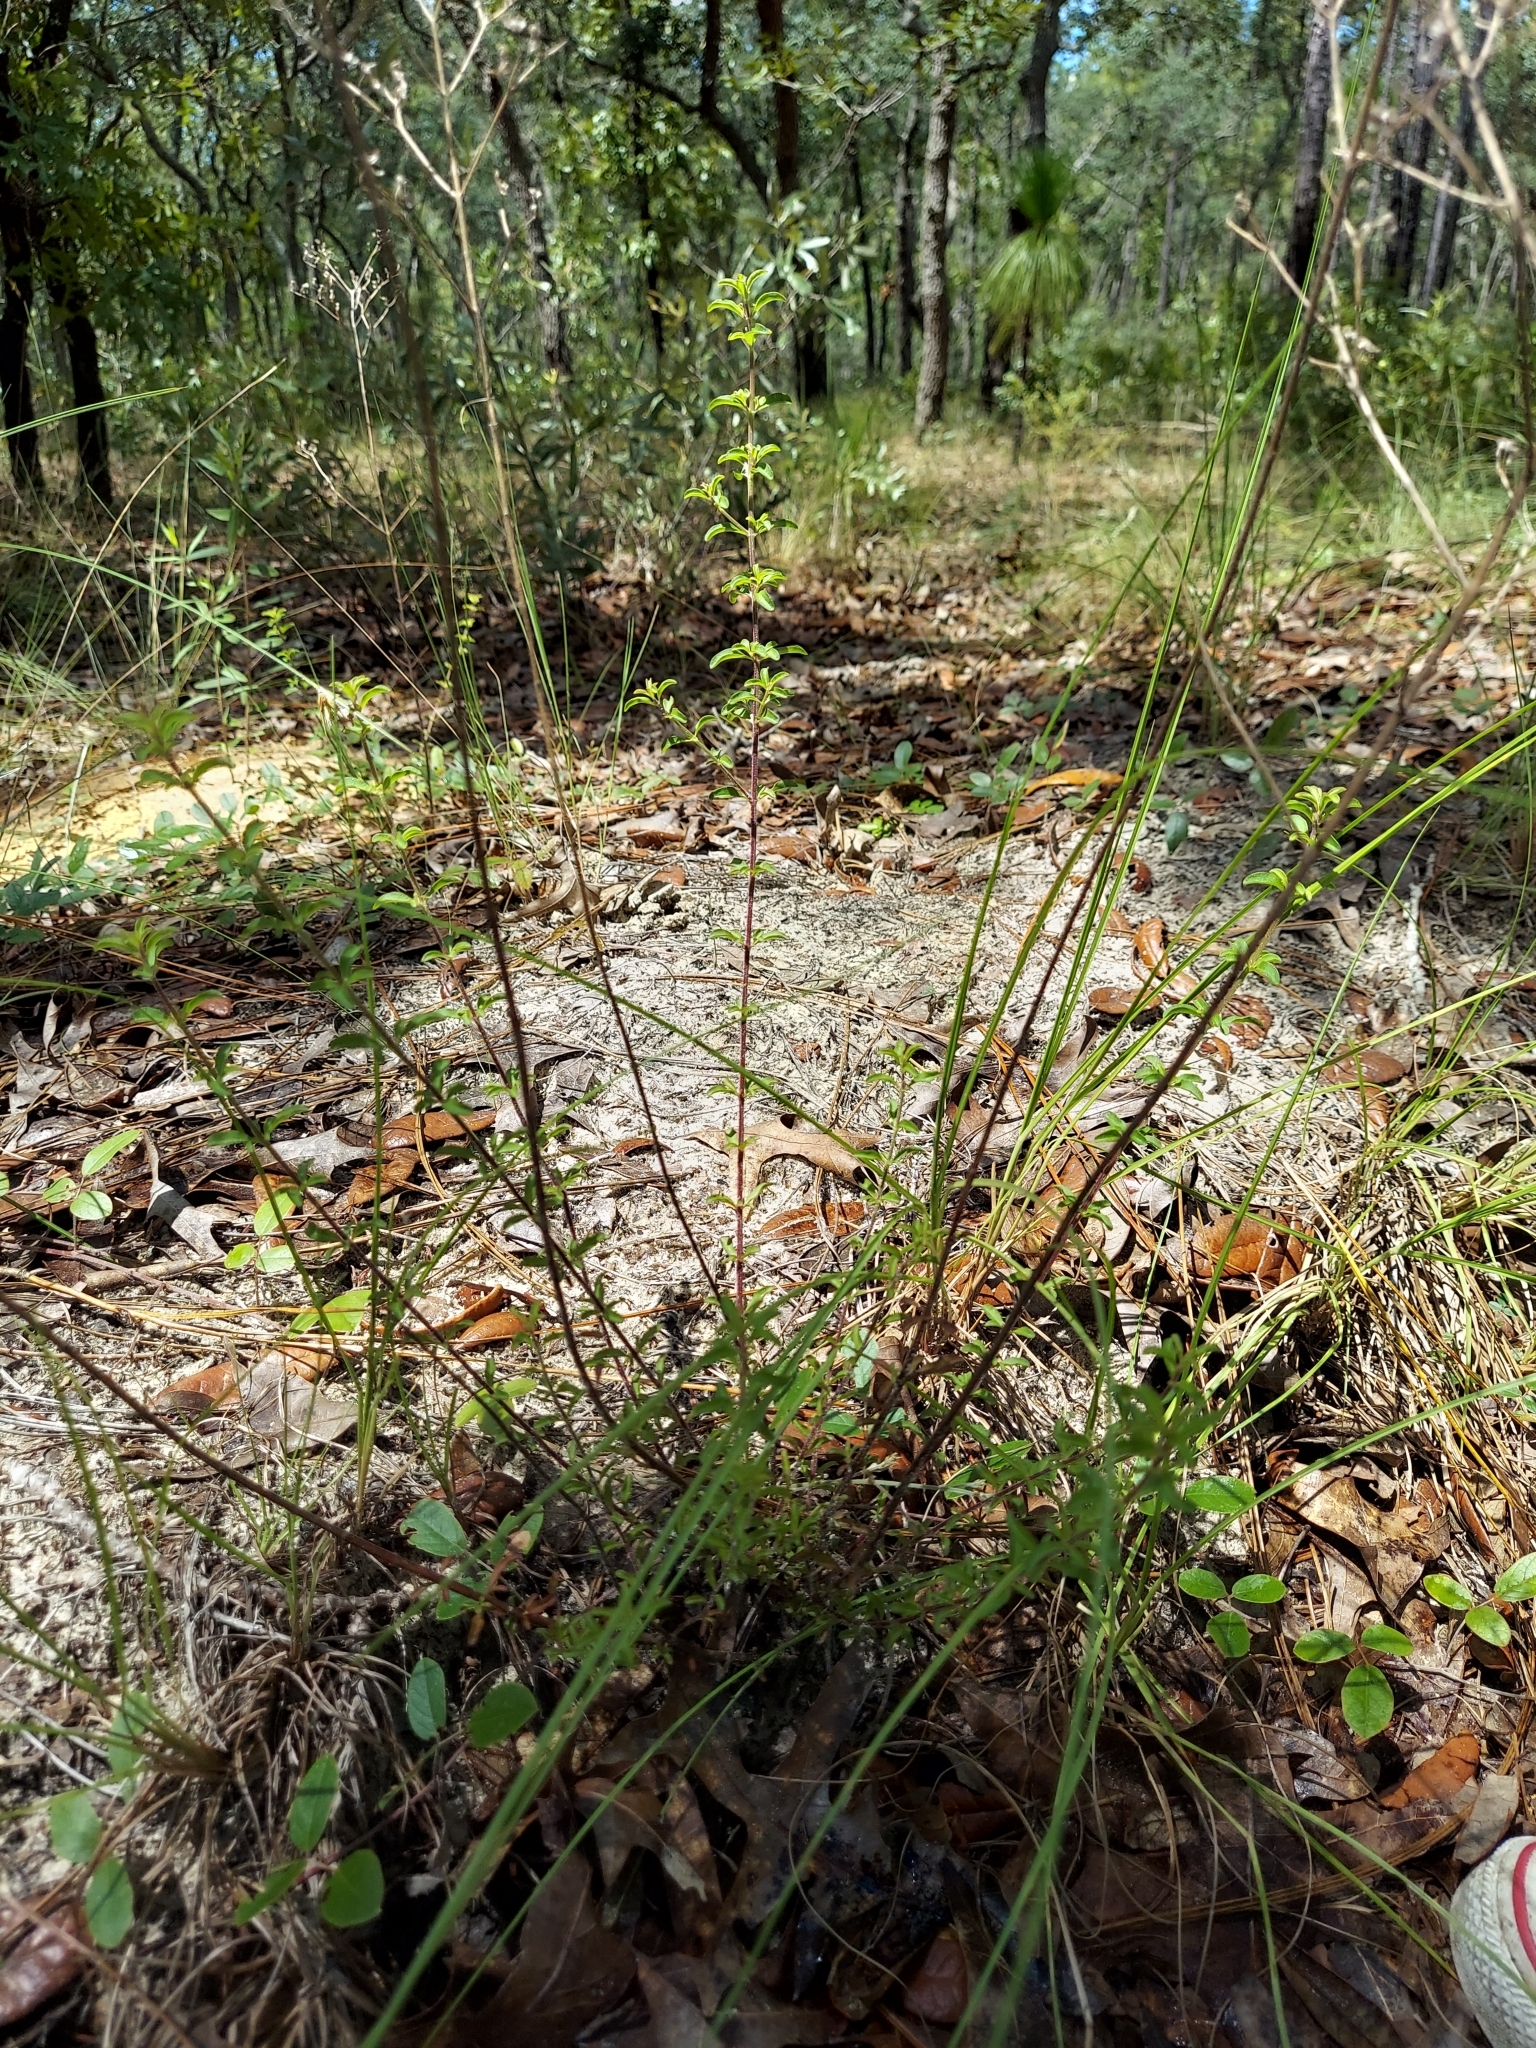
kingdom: Plantae
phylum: Tracheophyta
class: Magnoliopsida
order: Lamiales
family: Lamiaceae
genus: Trichostema
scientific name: Trichostema microphyllum
